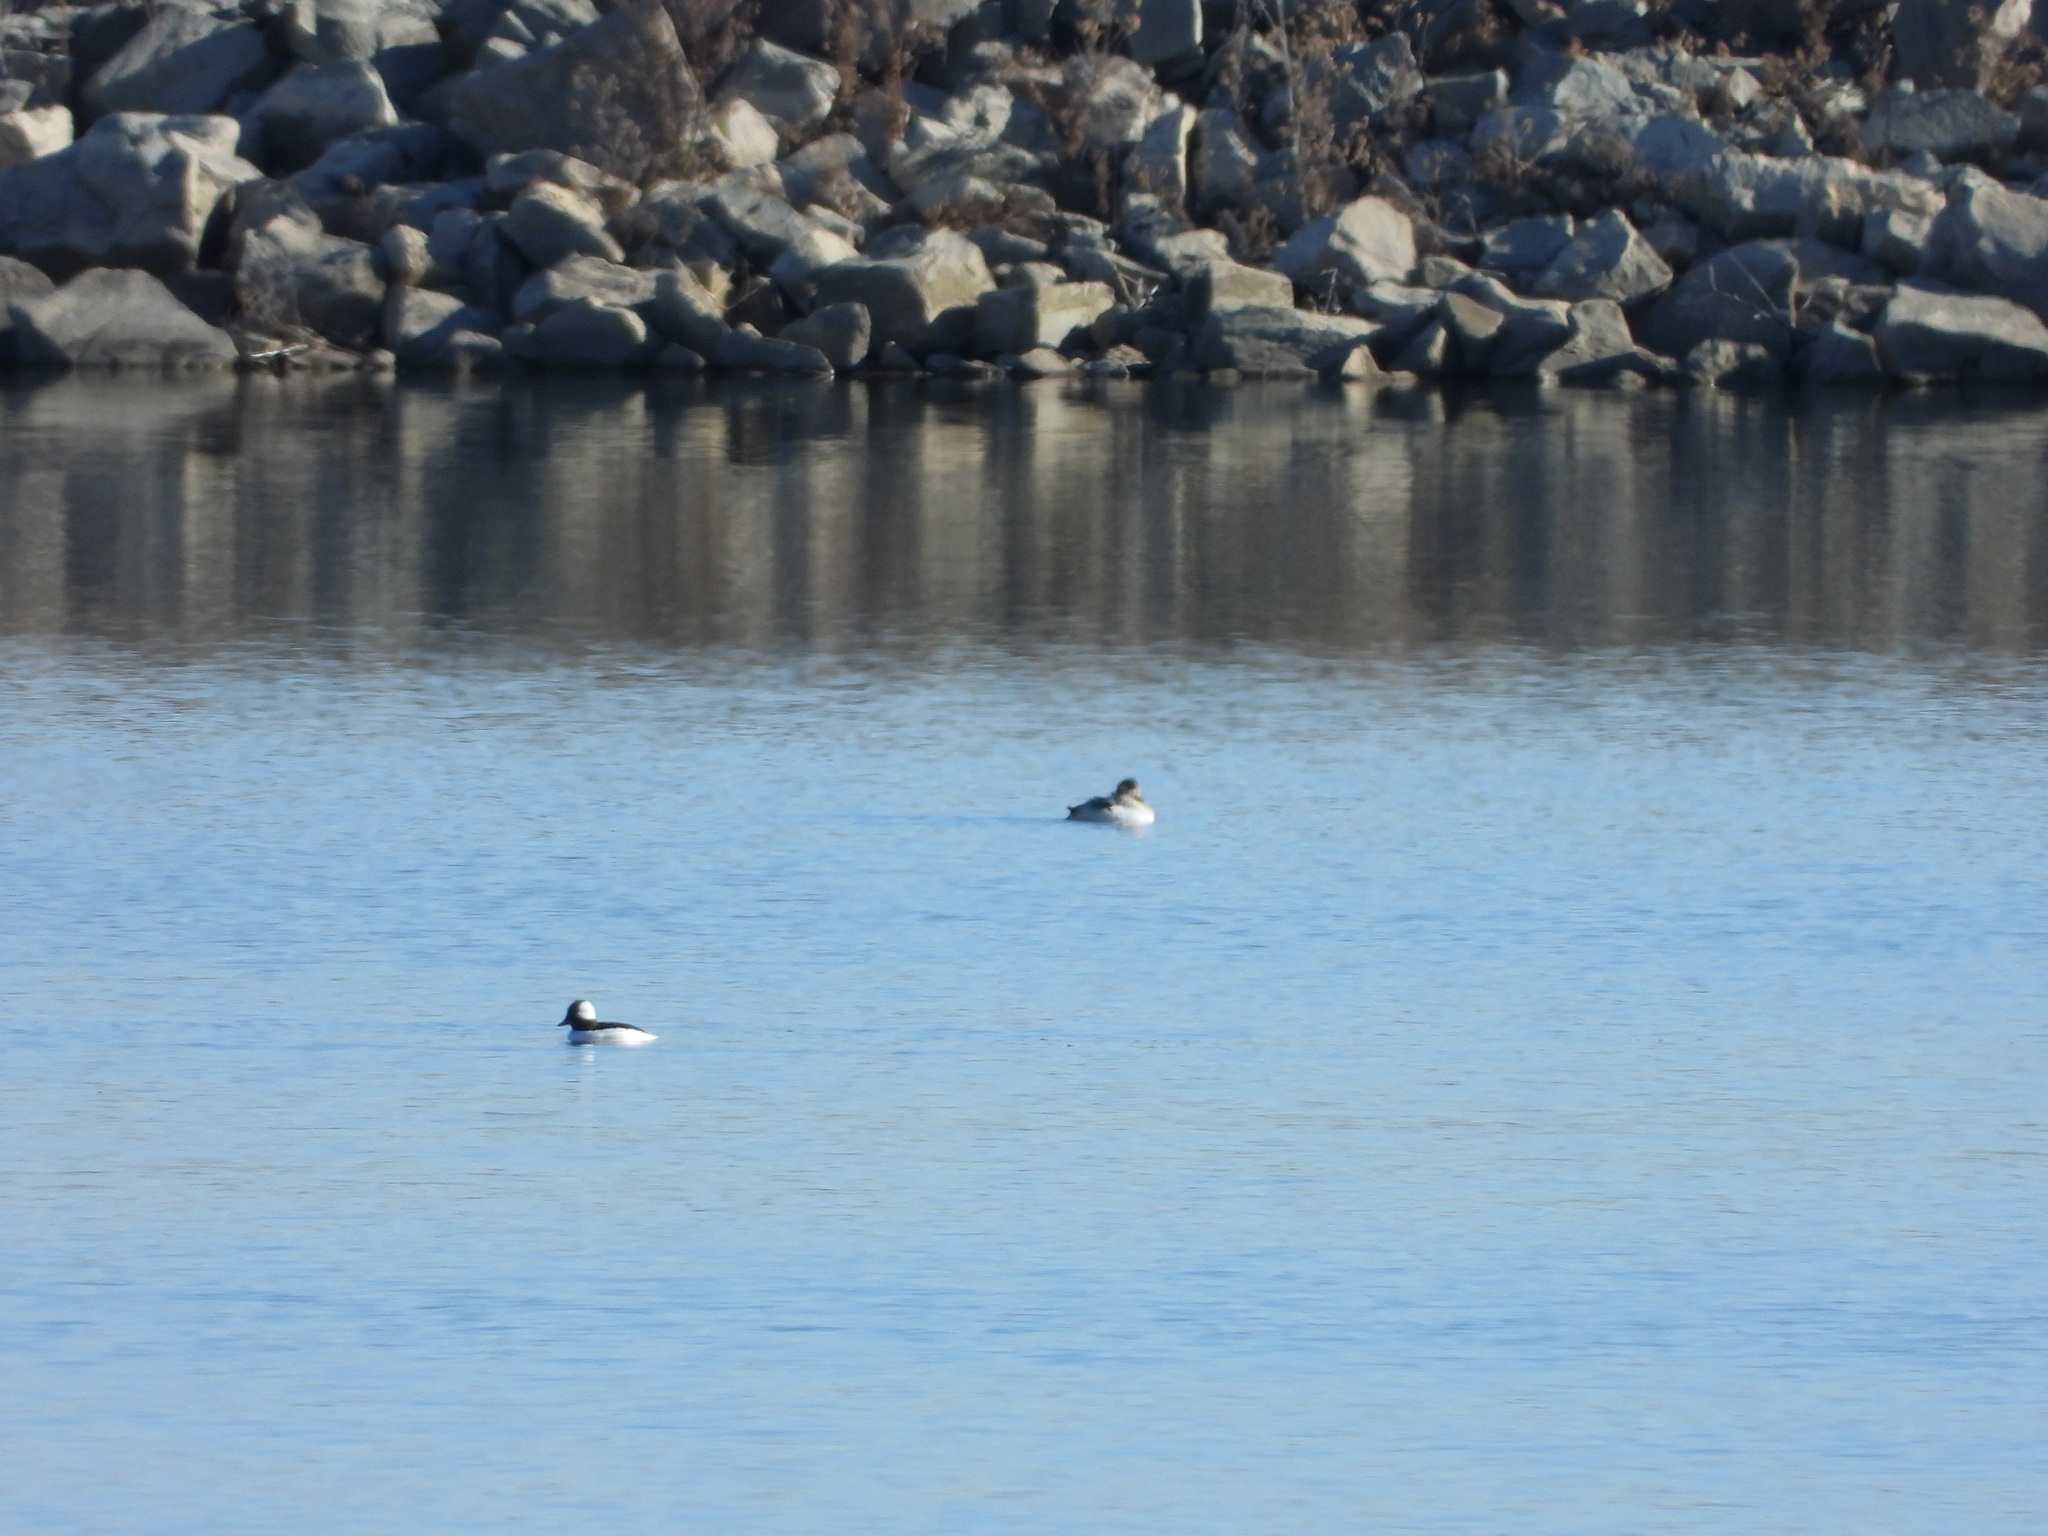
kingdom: Animalia
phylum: Chordata
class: Aves
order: Anseriformes
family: Anatidae
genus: Bucephala
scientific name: Bucephala albeola
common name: Bufflehead
